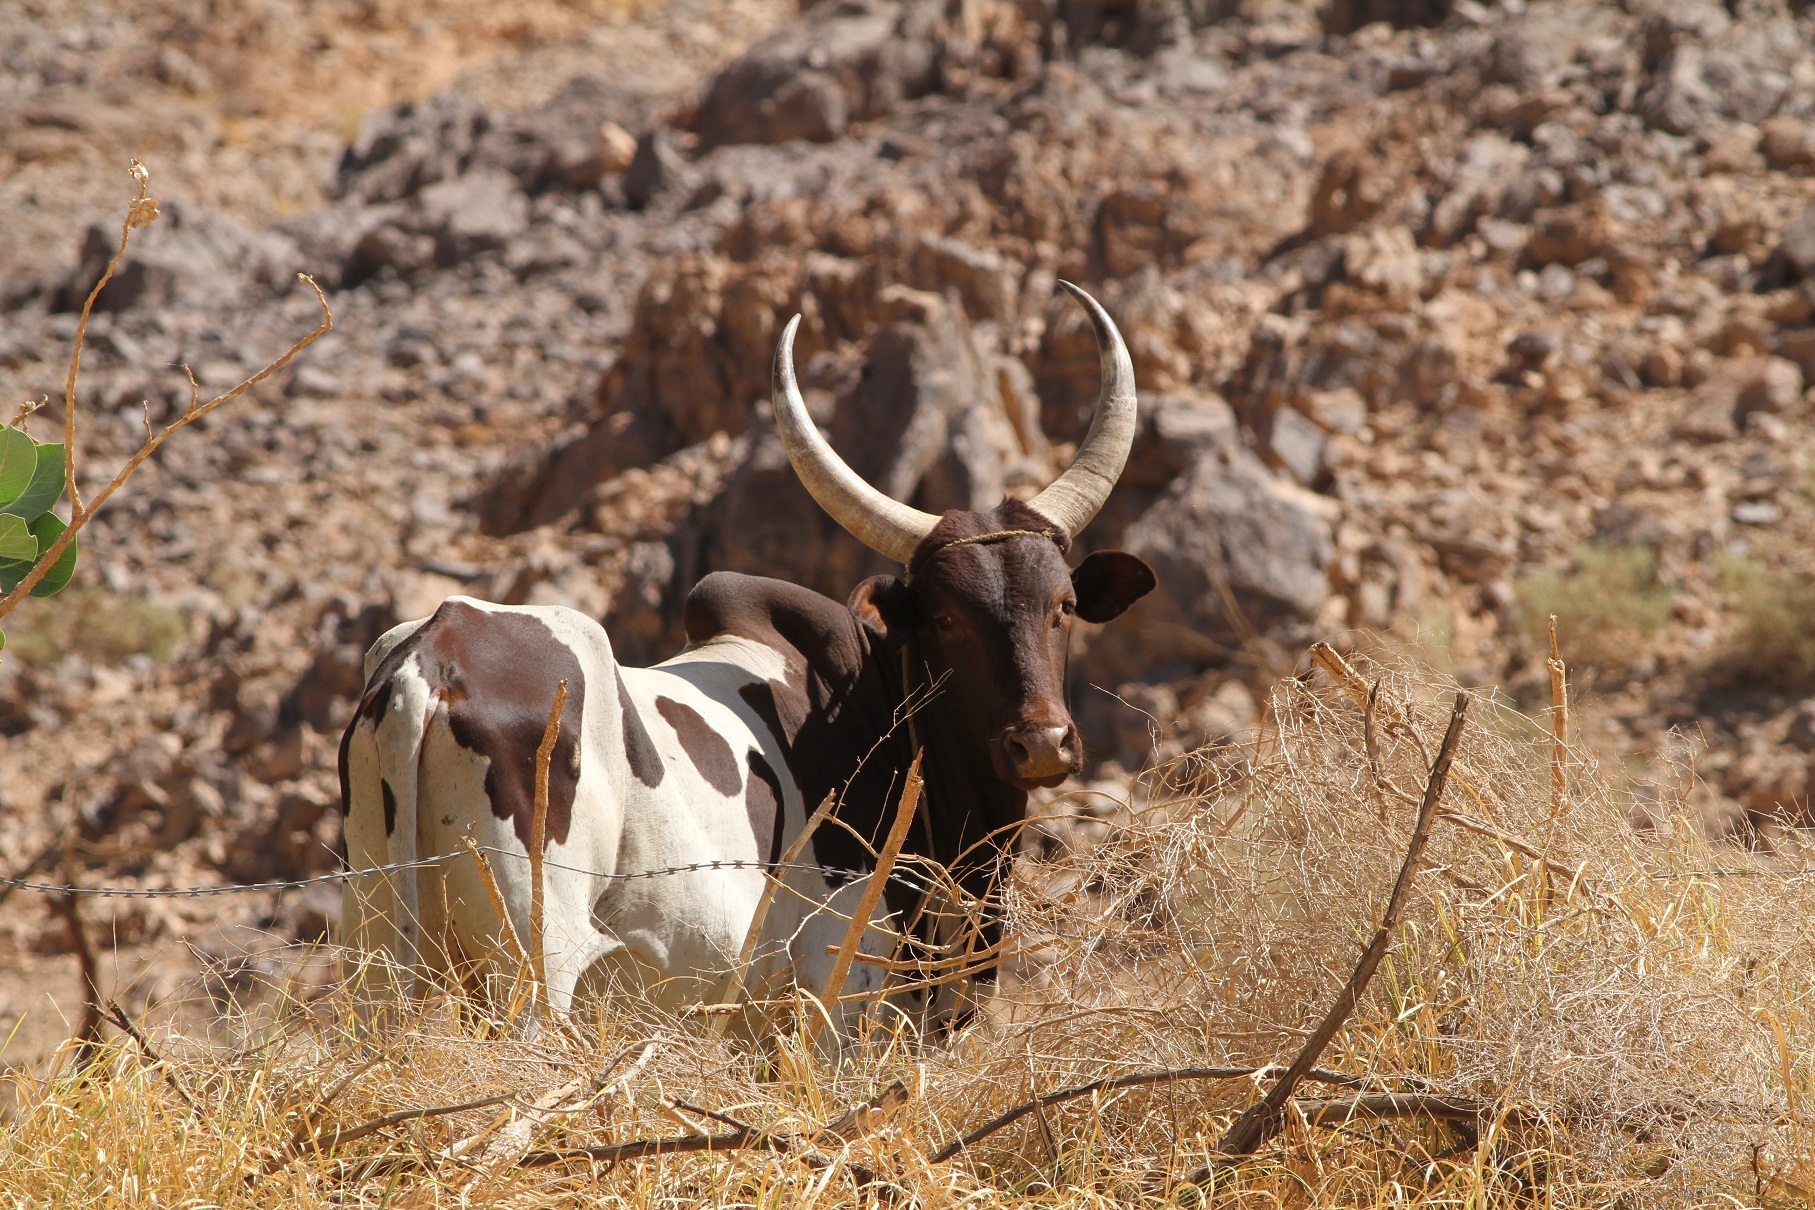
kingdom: Animalia
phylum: Chordata
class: Mammalia
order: Artiodactyla
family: Bovidae
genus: Bos
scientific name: Bos
